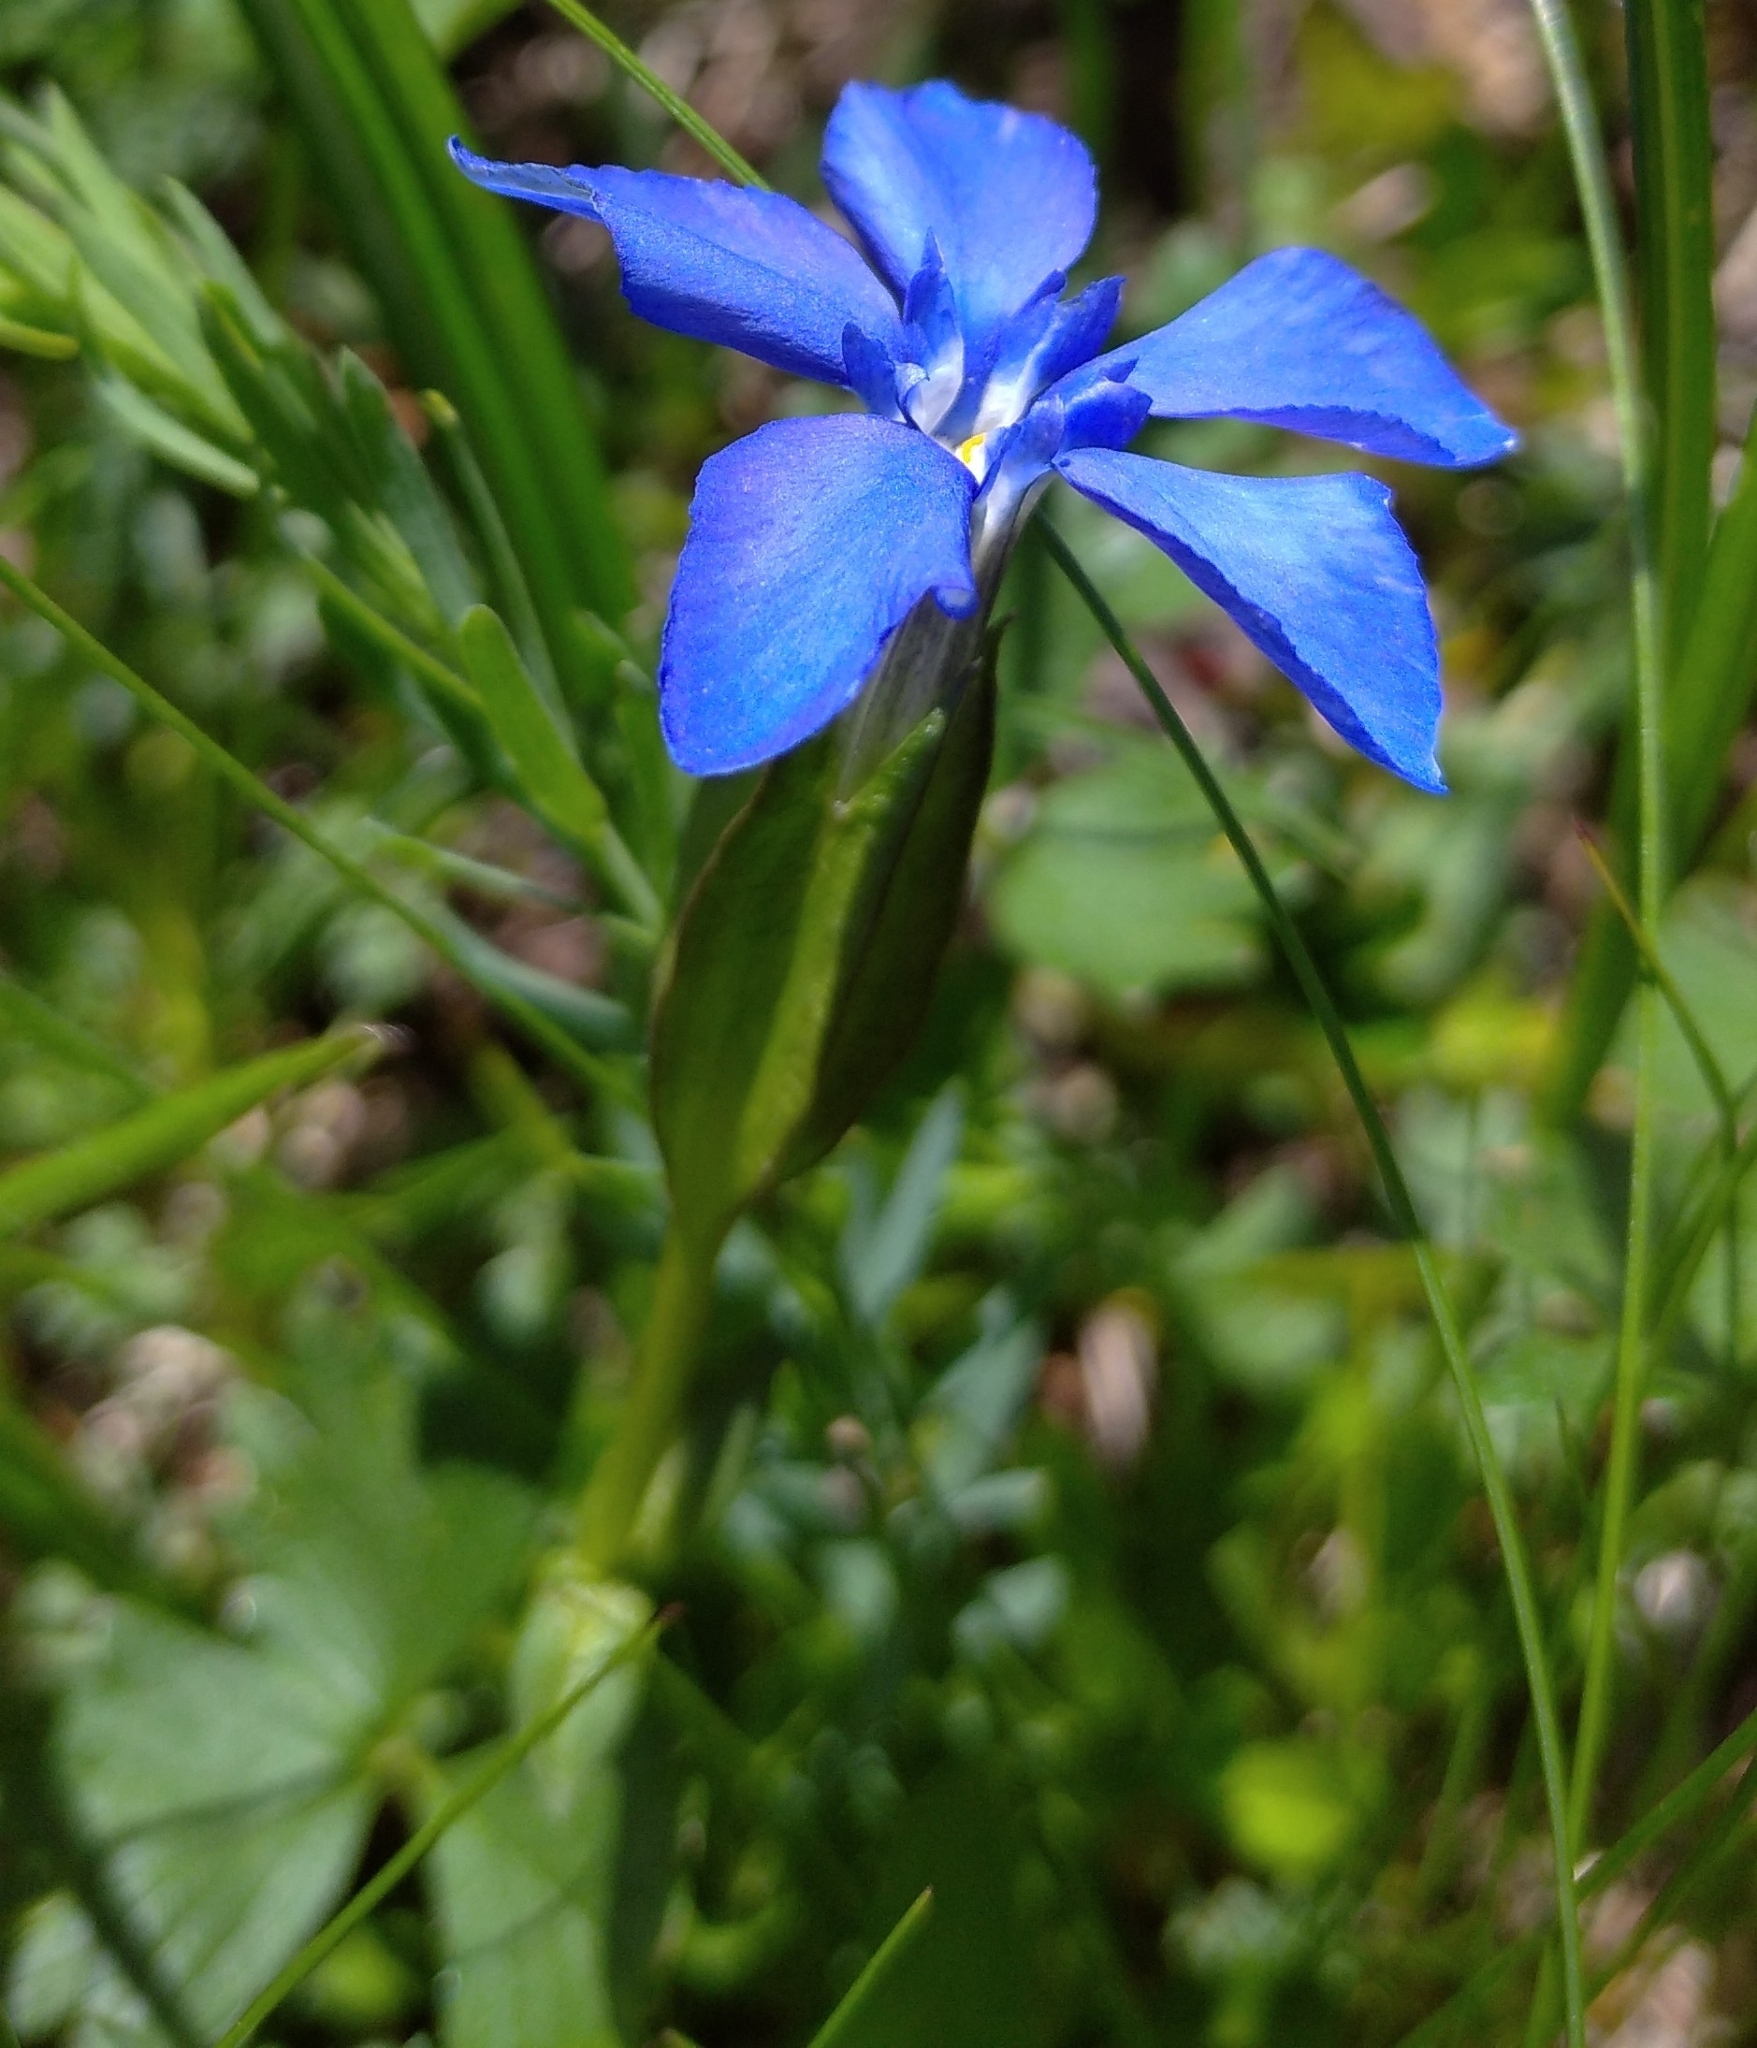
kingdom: Plantae
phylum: Tracheophyta
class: Magnoliopsida
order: Gentianales
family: Gentianaceae
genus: Gentiana
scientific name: Gentiana verna
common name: Spring gentian
